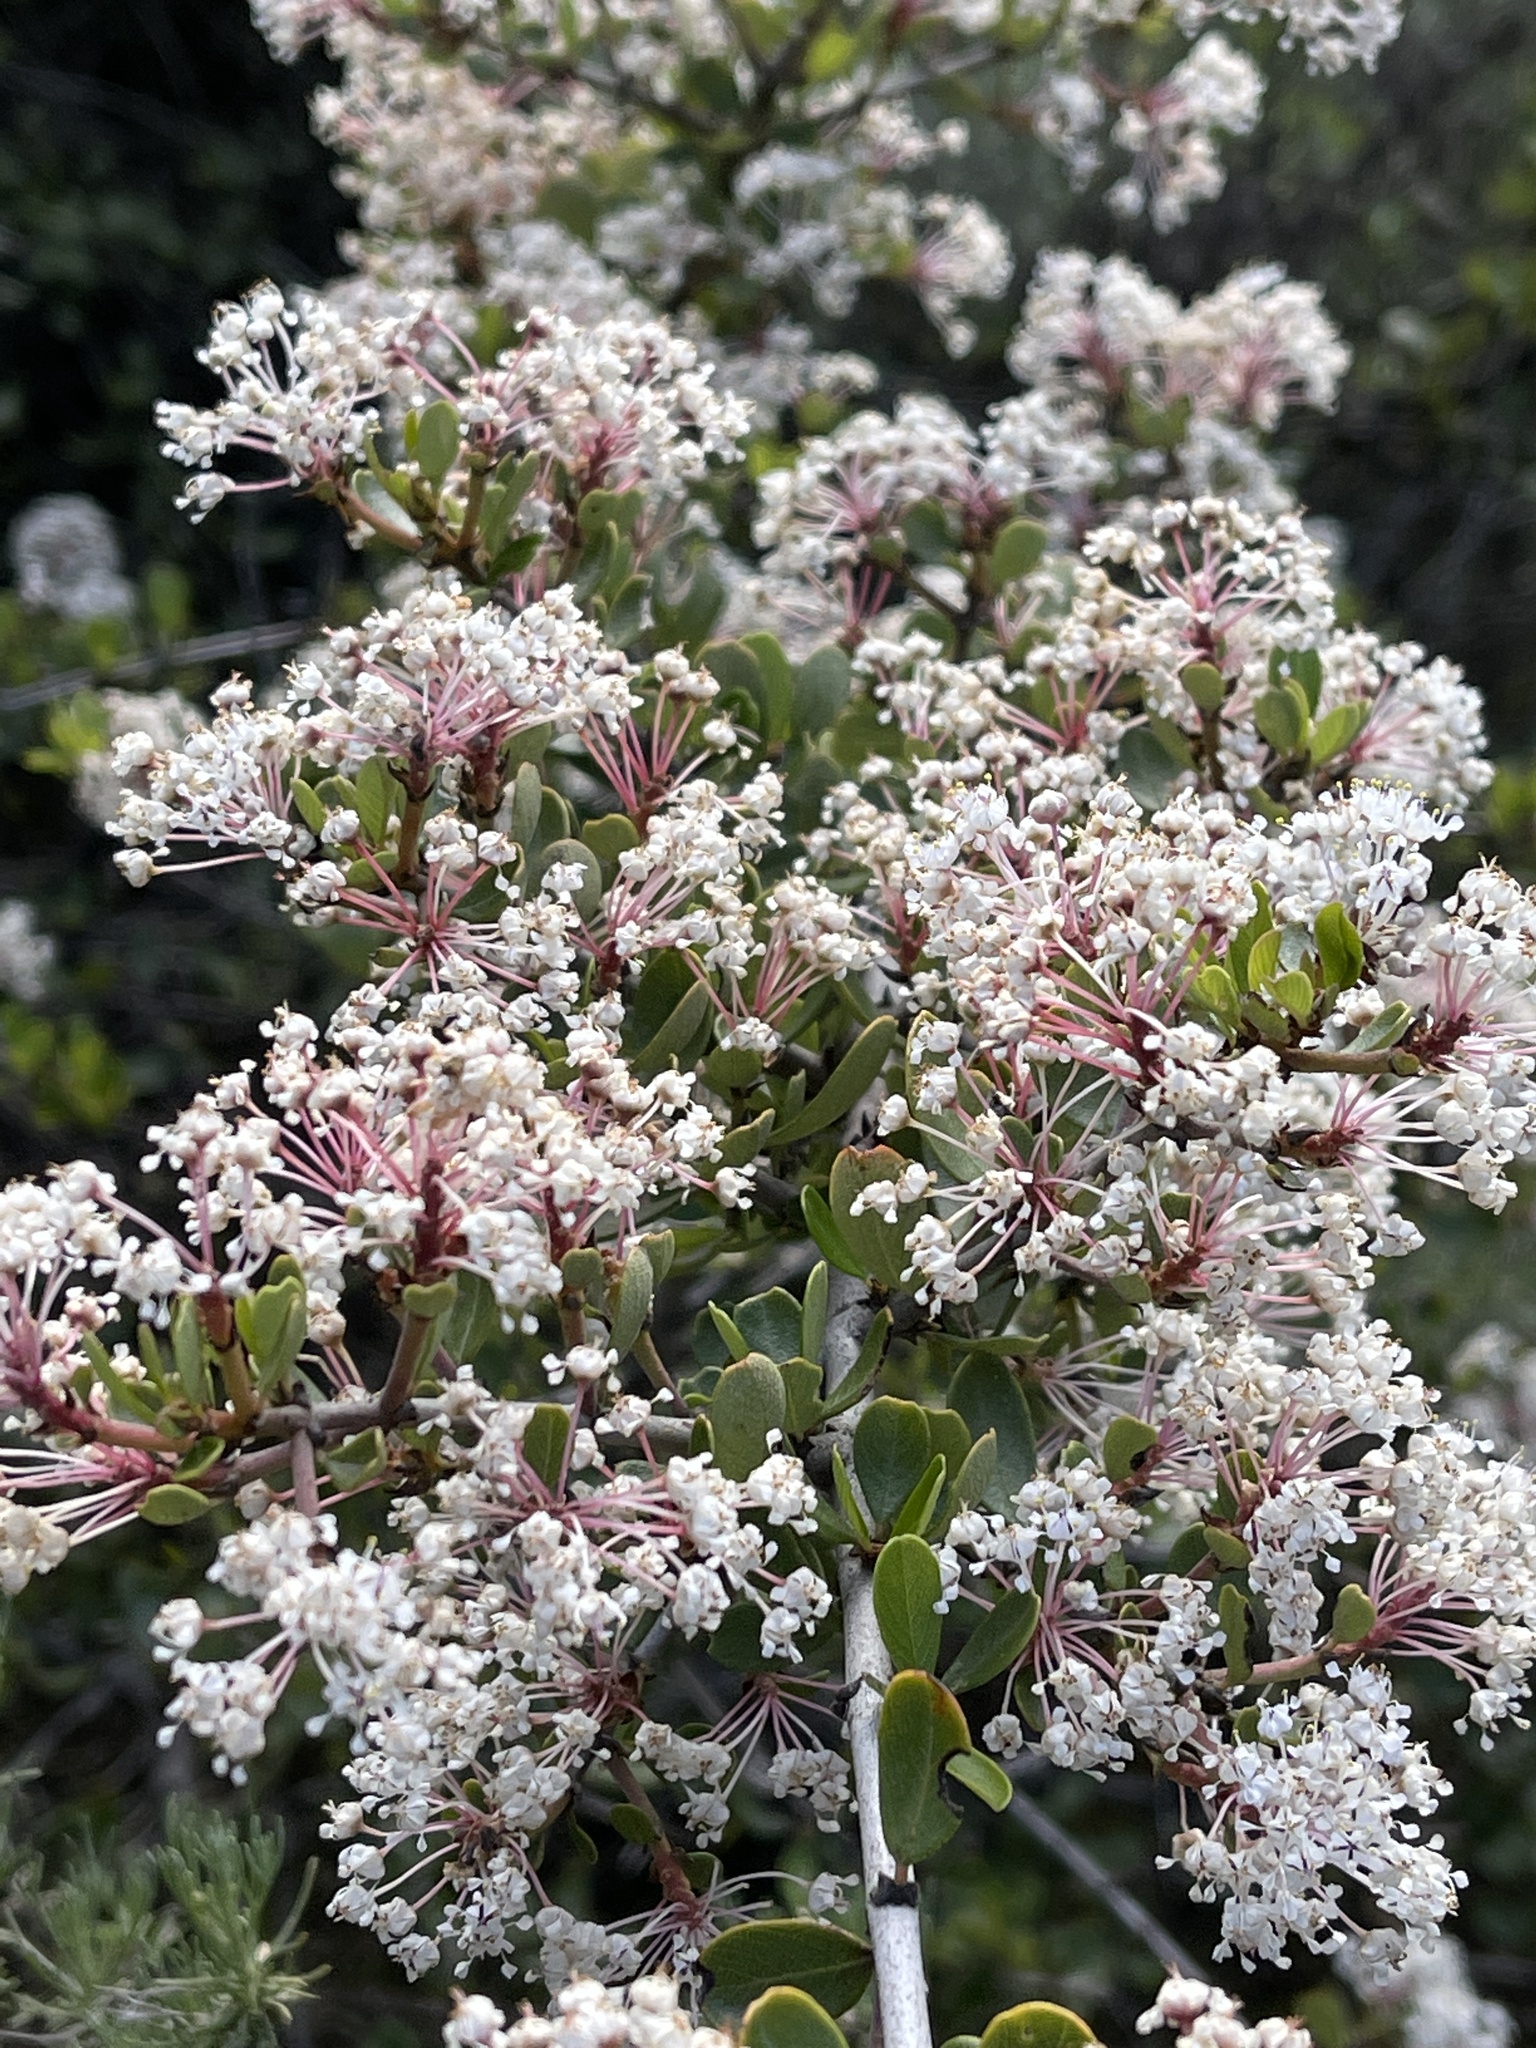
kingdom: Plantae
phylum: Tracheophyta
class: Magnoliopsida
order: Rosales
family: Rhamnaceae
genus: Ceanothus
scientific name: Ceanothus cuneatus
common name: Cuneate ceanothus
